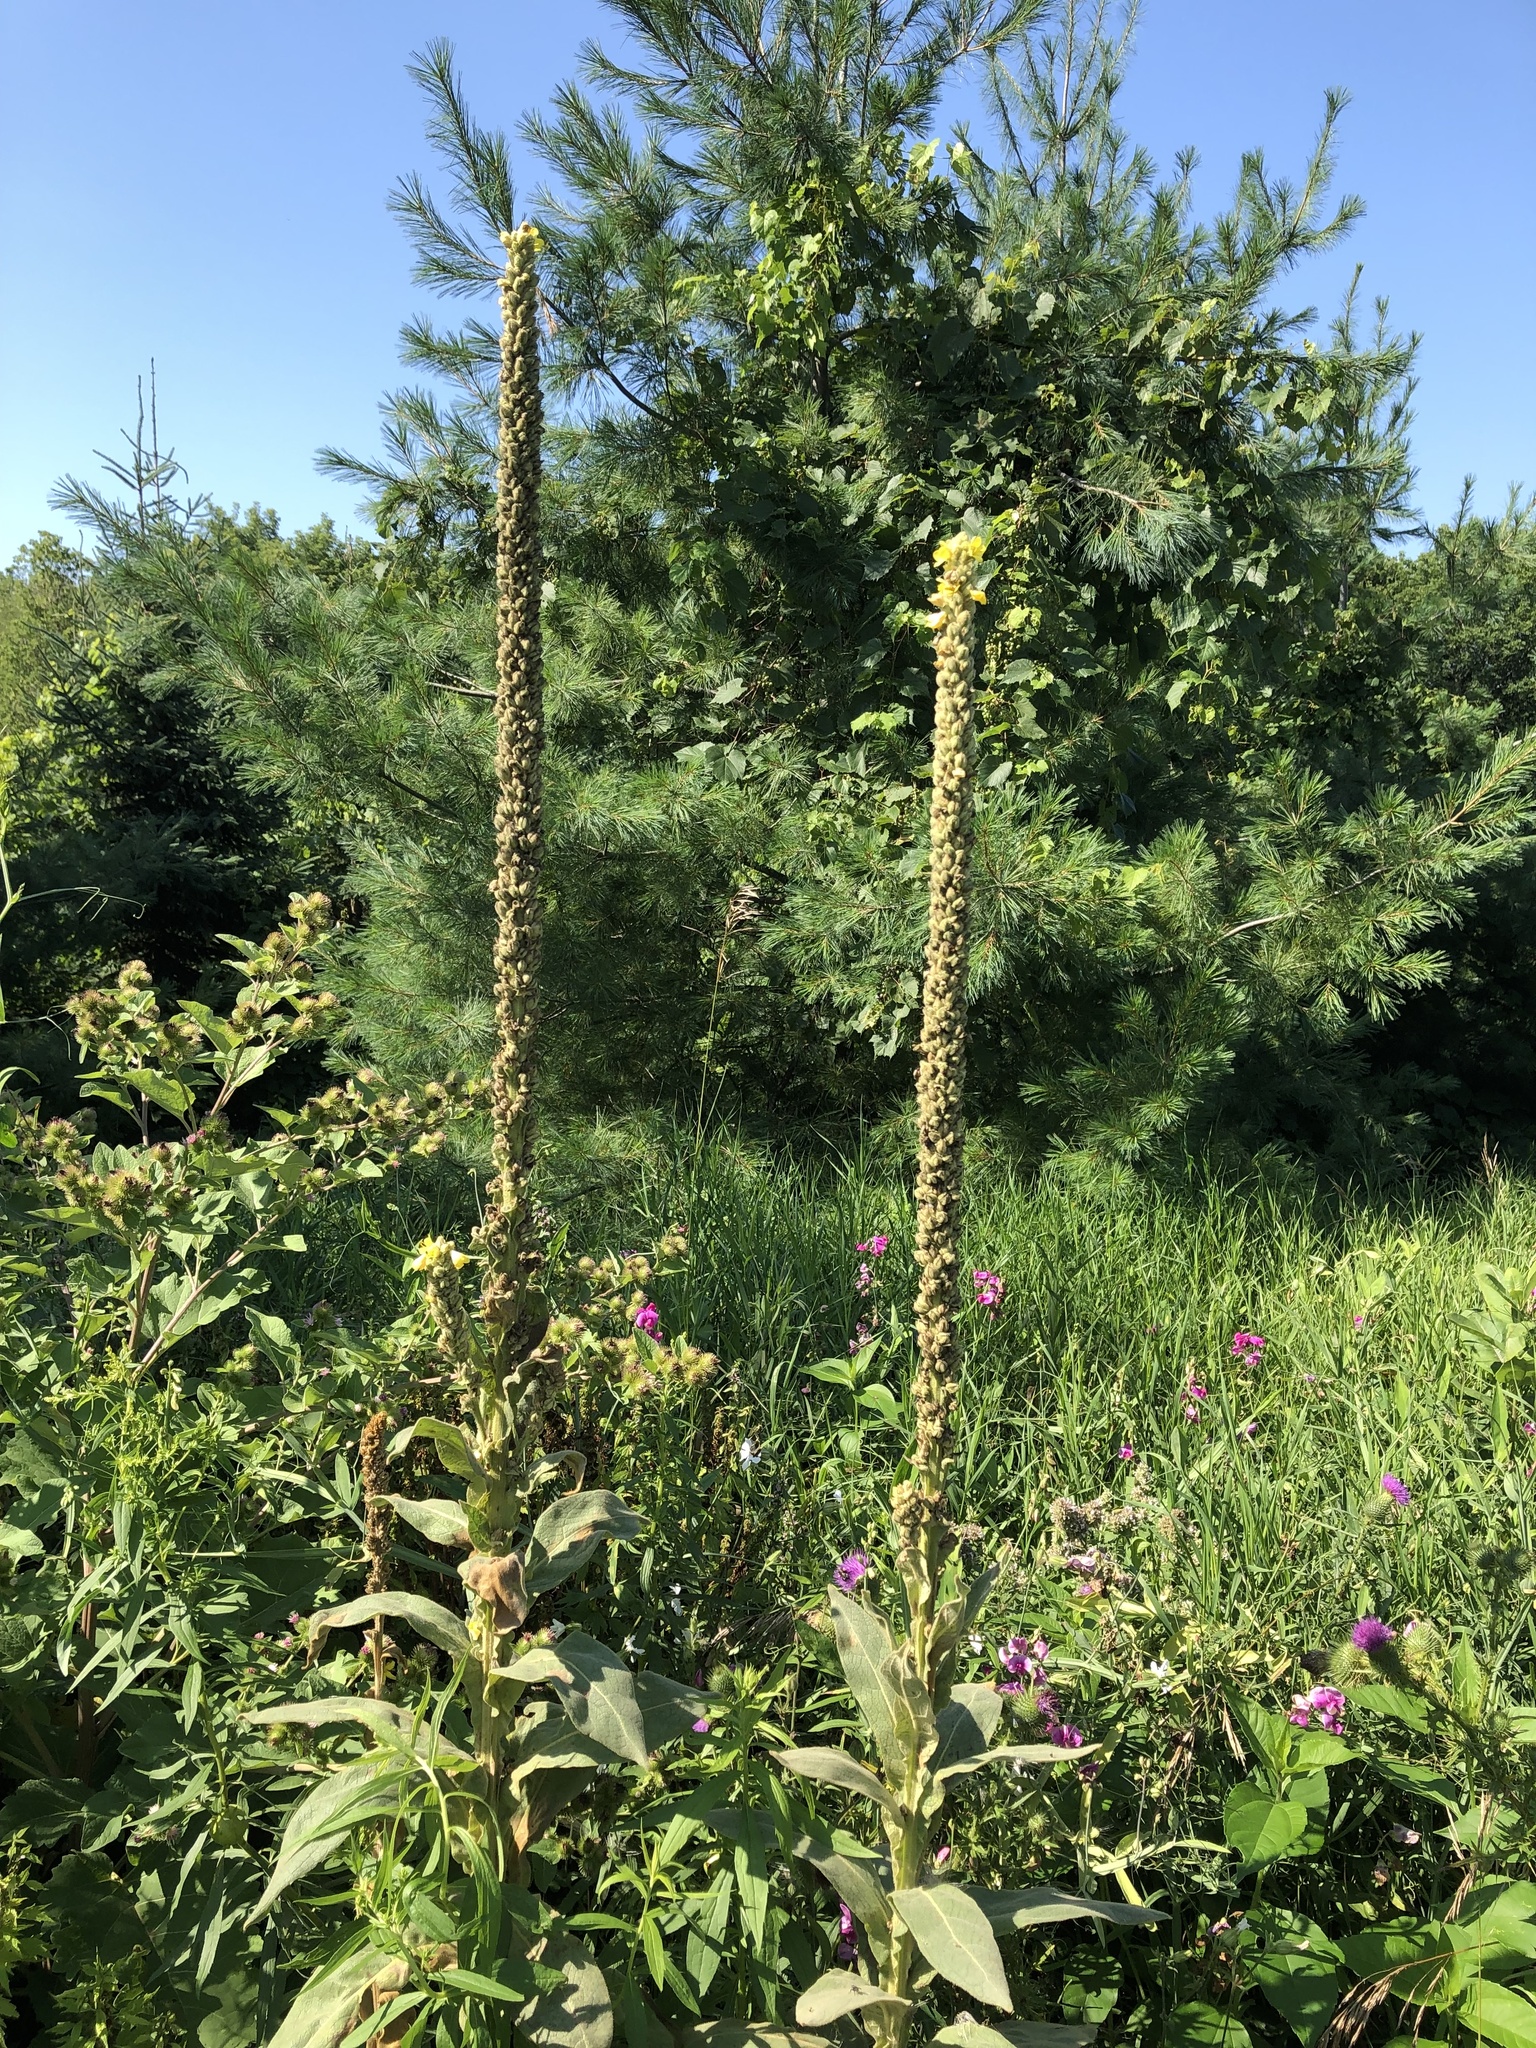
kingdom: Plantae
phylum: Tracheophyta
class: Magnoliopsida
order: Lamiales
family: Scrophulariaceae
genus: Verbascum
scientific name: Verbascum thapsus
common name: Common mullein
